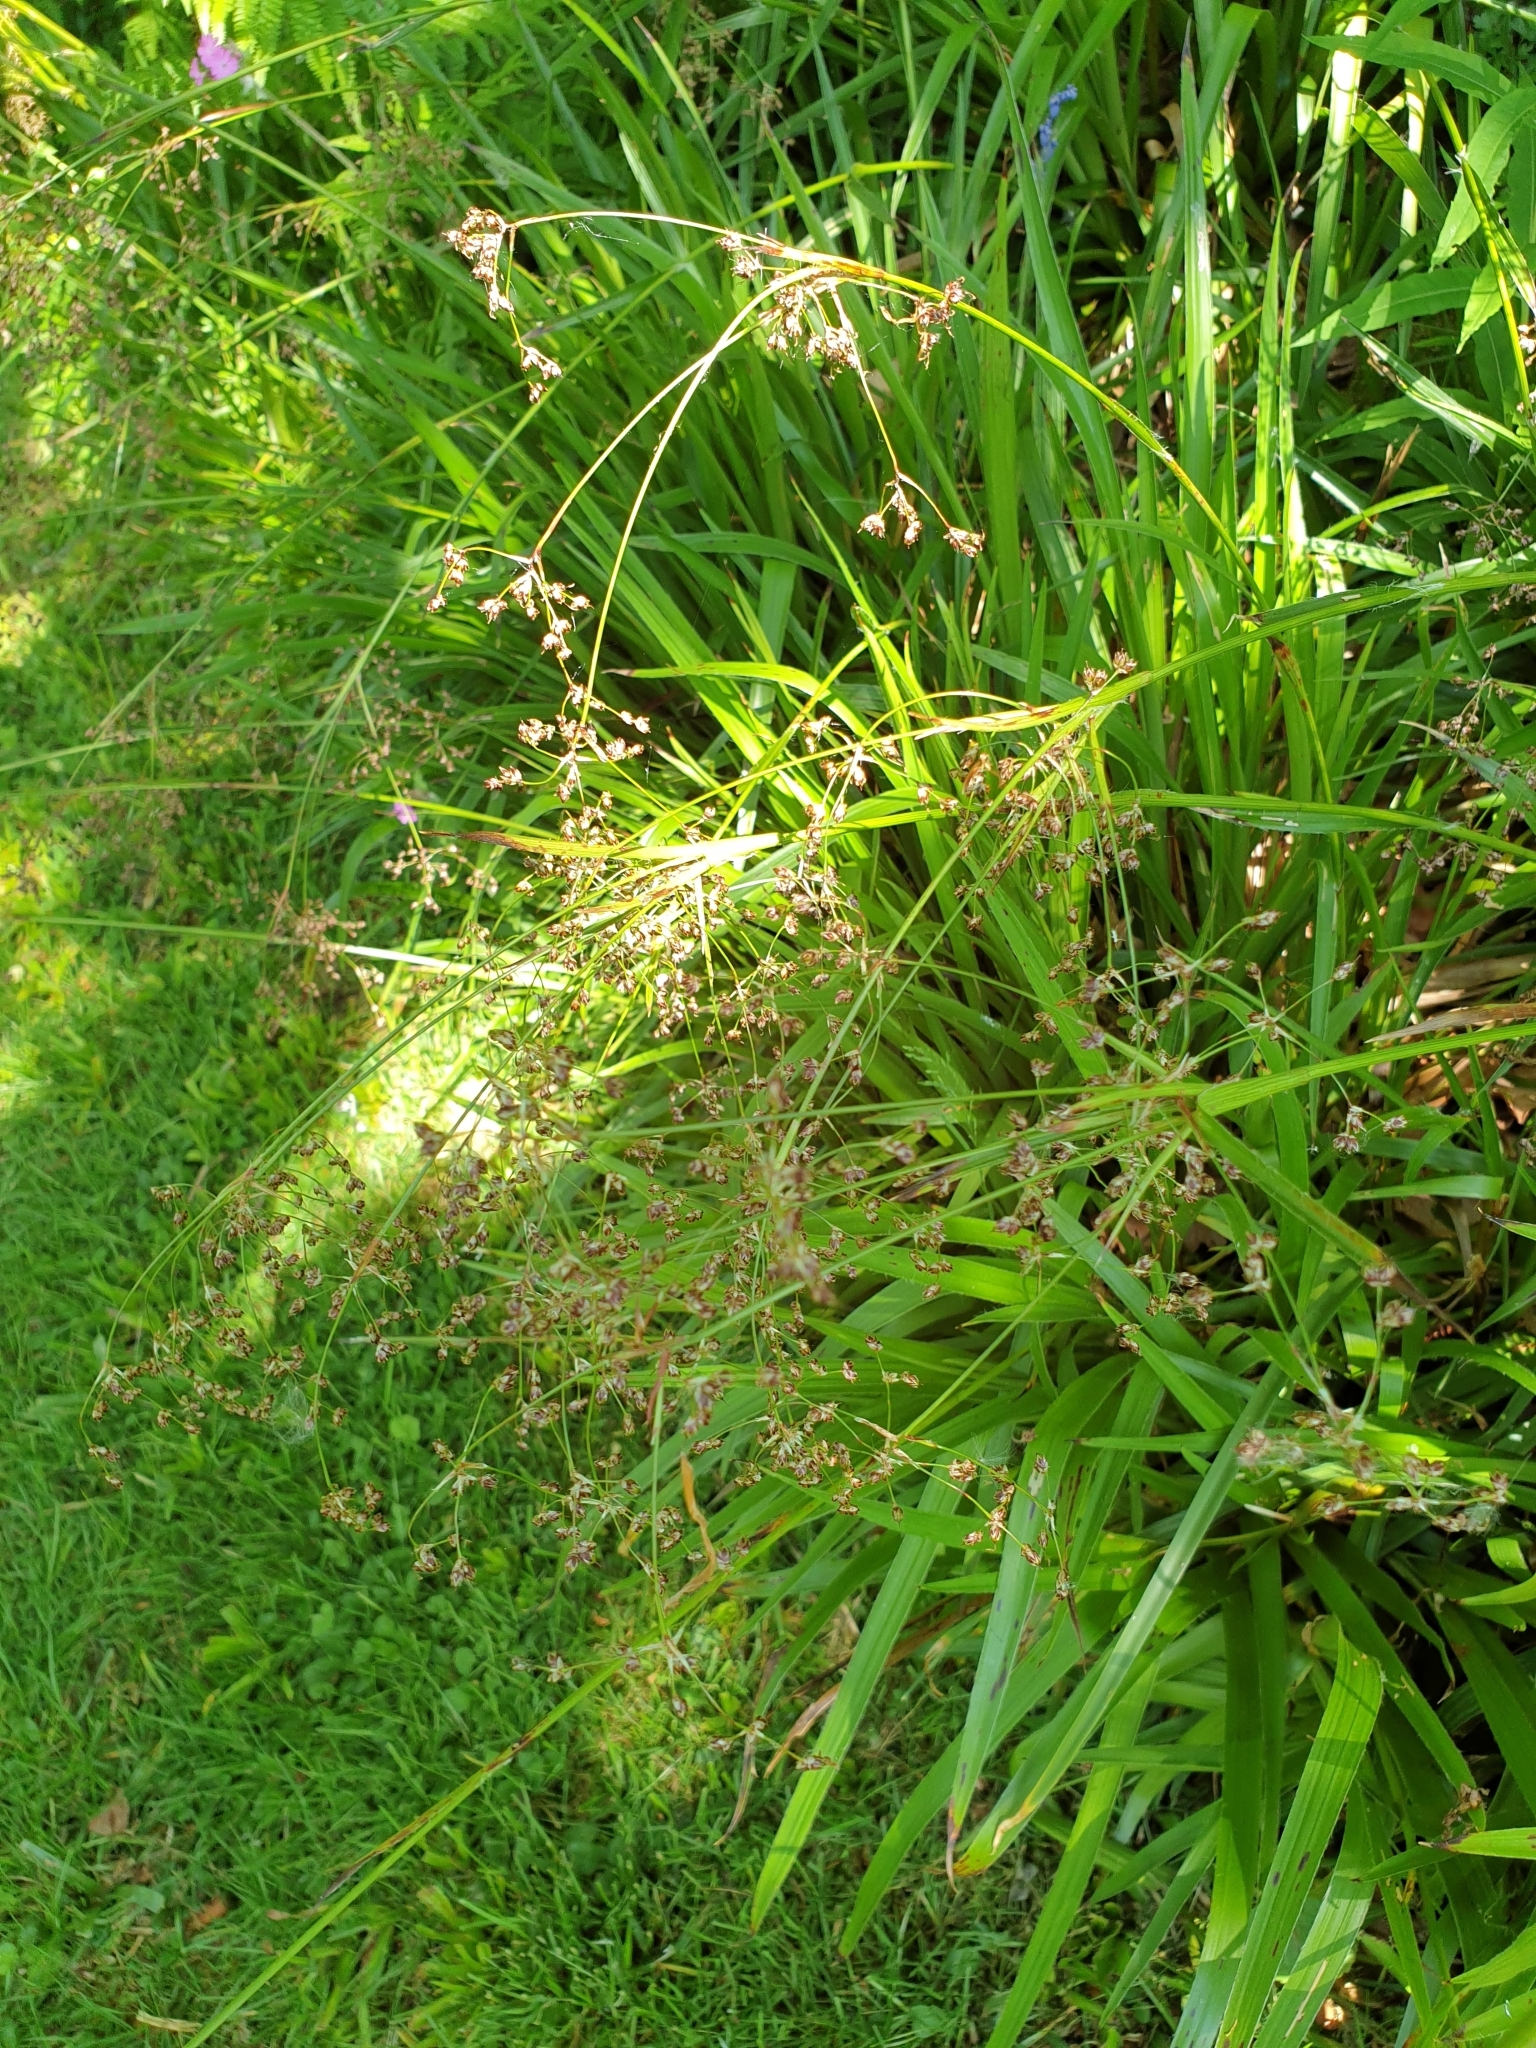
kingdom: Plantae
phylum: Tracheophyta
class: Liliopsida
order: Poales
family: Juncaceae
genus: Luzula
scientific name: Luzula sylvatica
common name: Great wood-rush
